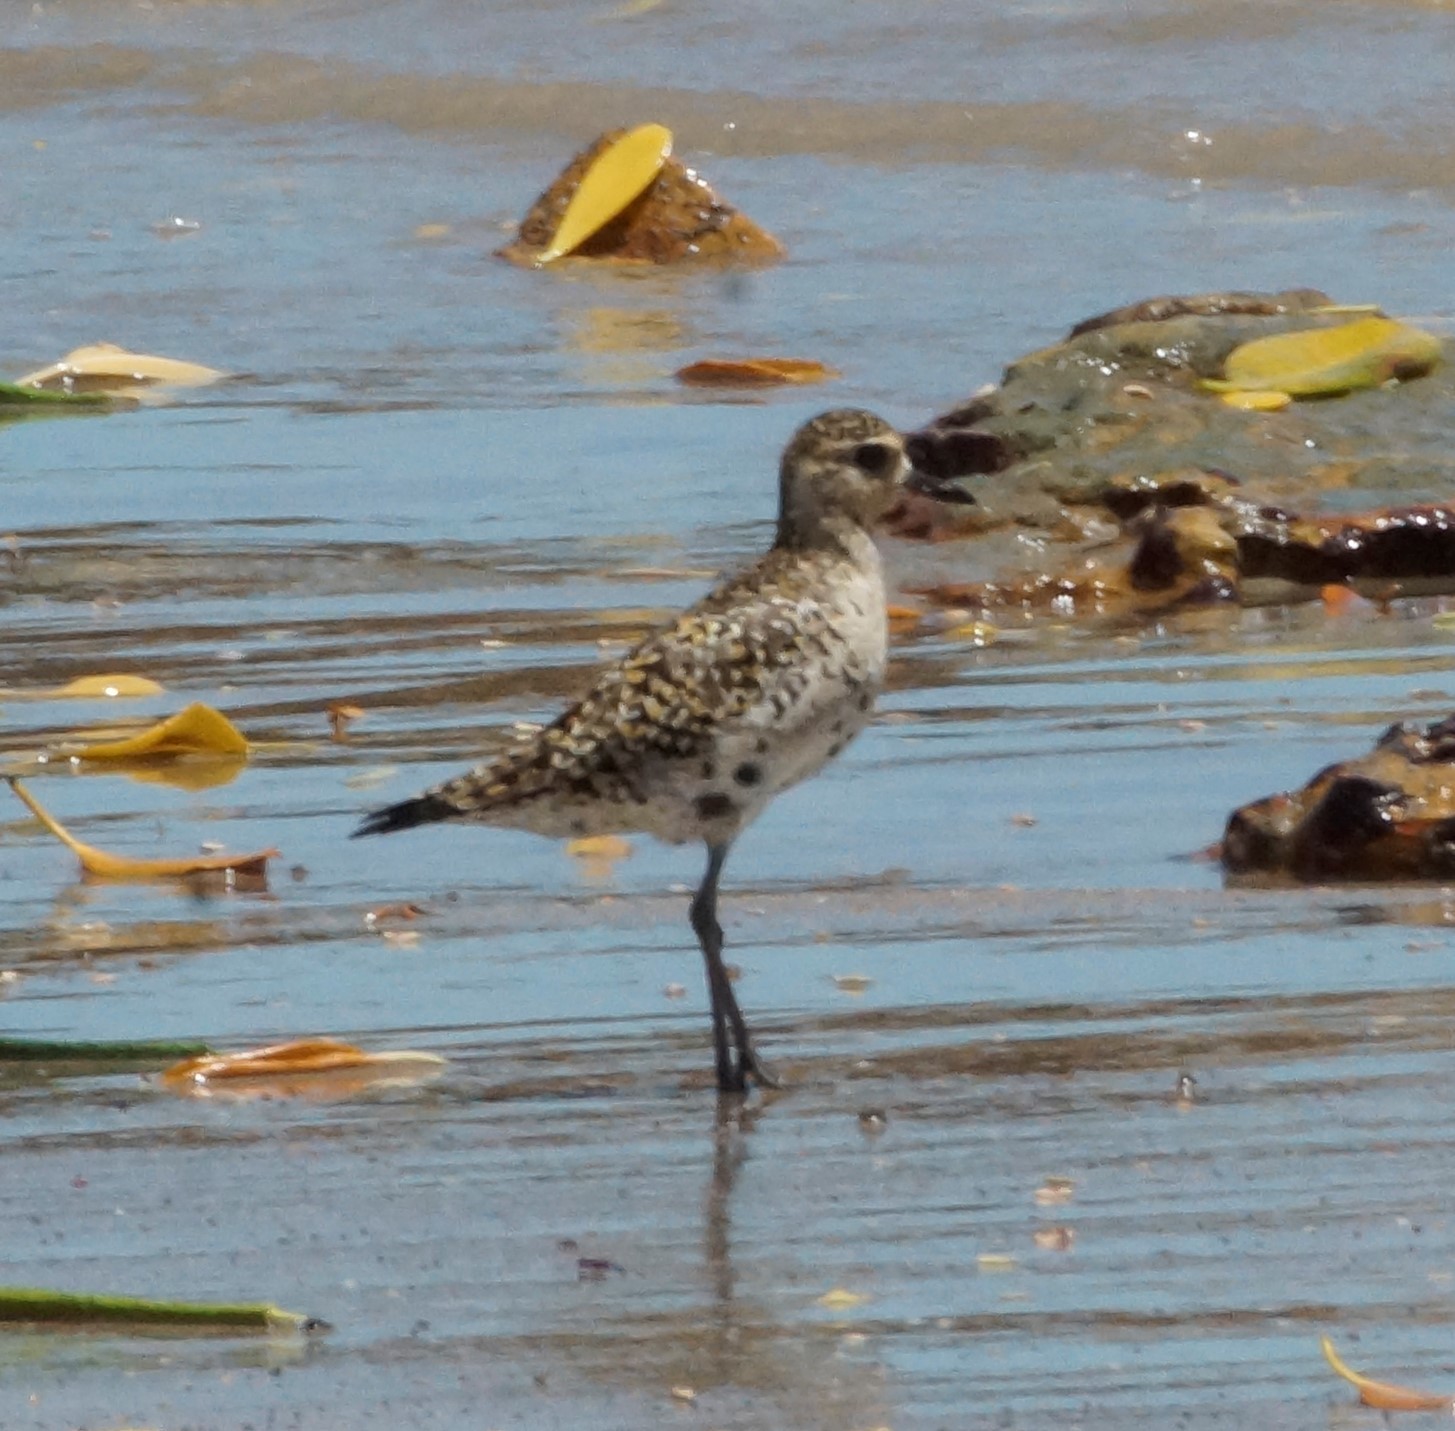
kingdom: Animalia
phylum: Chordata
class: Aves
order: Charadriiformes
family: Charadriidae
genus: Pluvialis
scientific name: Pluvialis fulva
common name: Pacific golden plover
